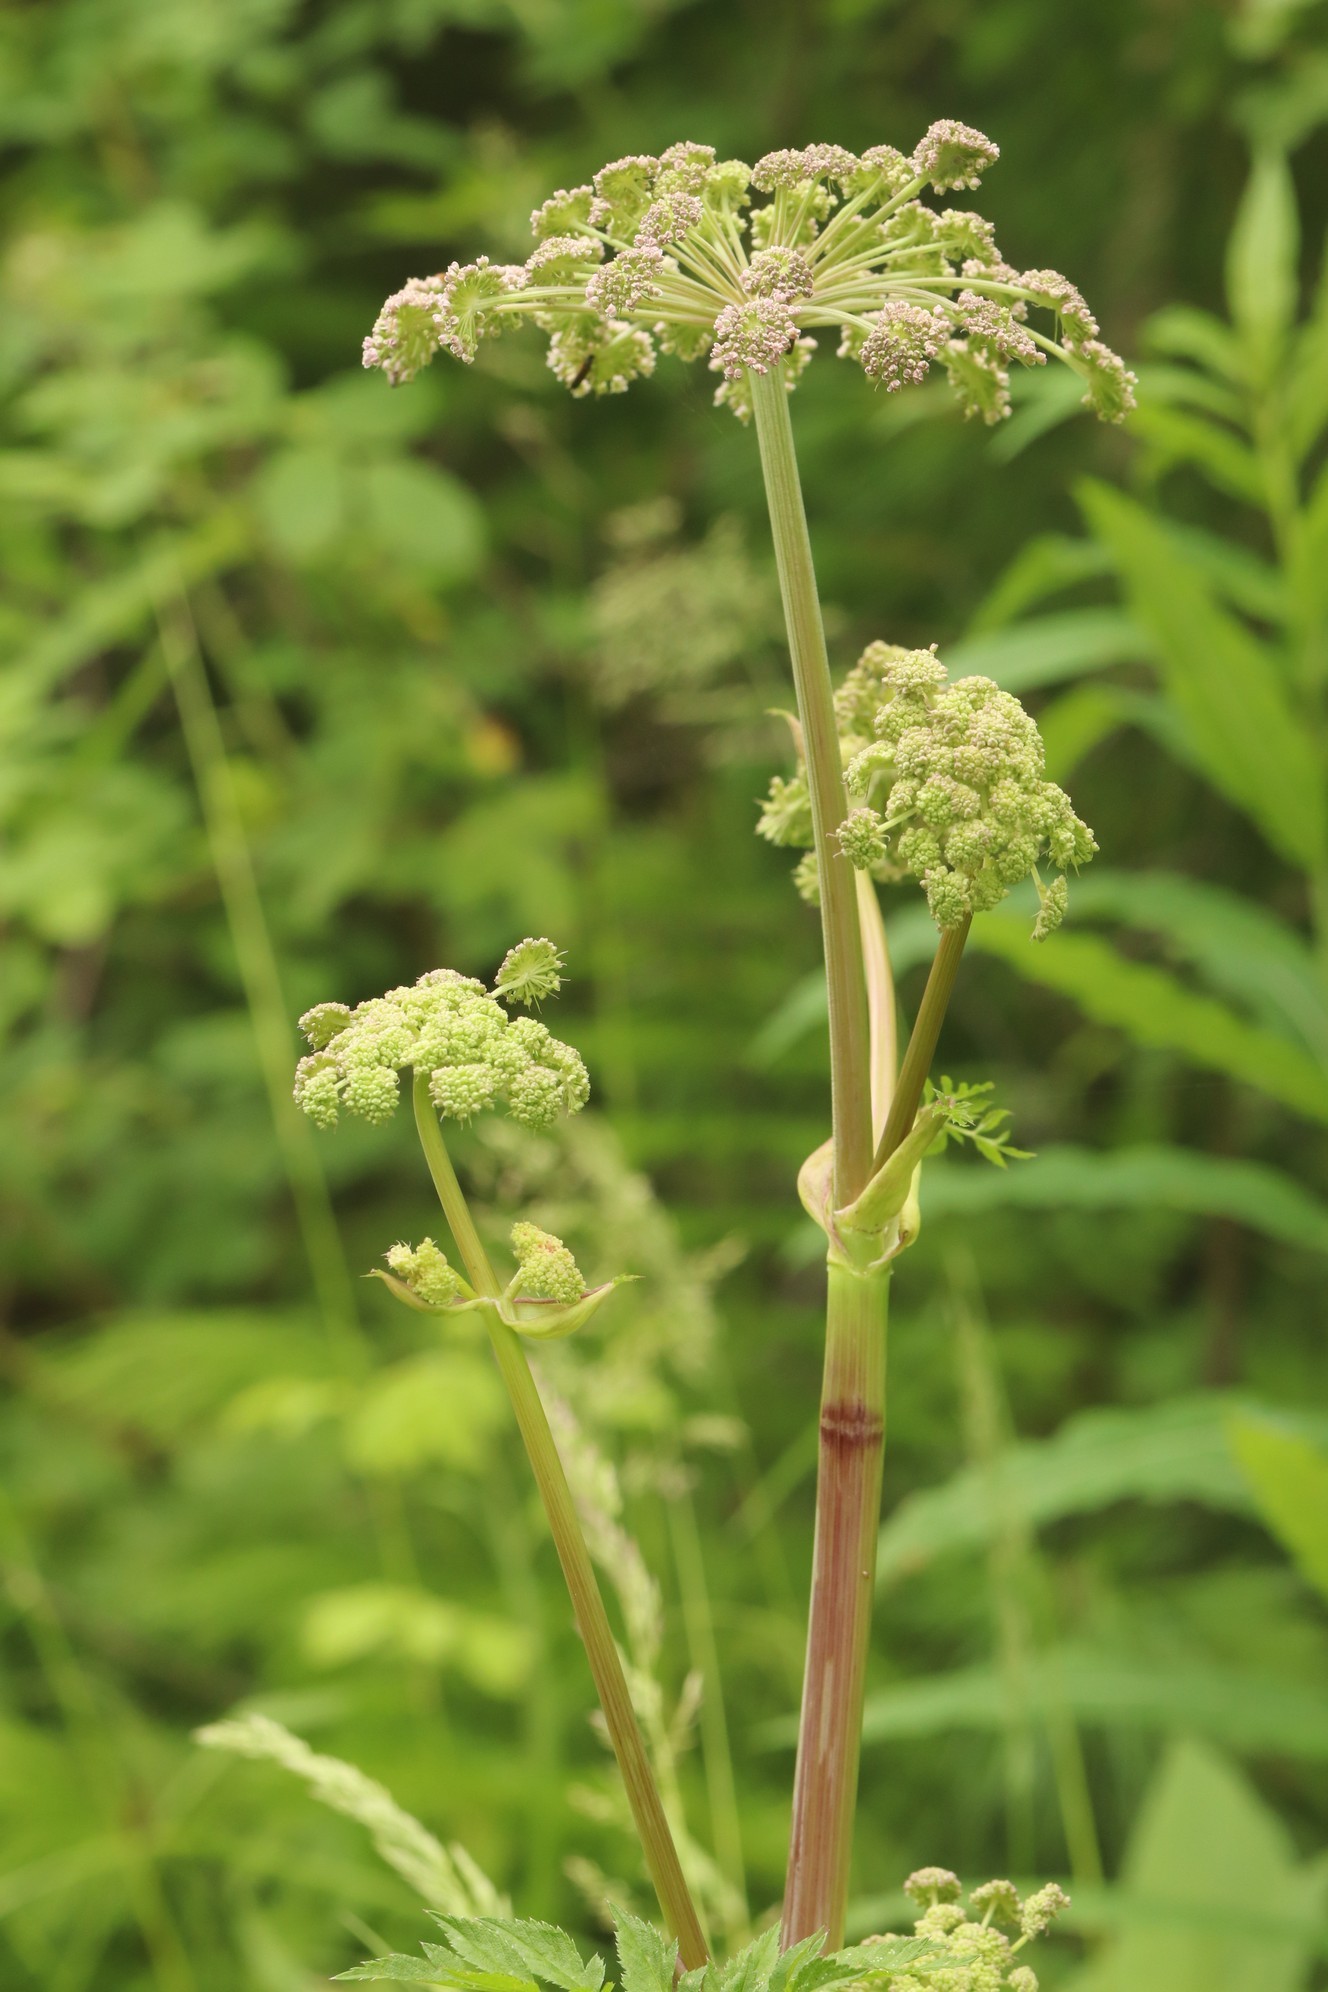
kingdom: Plantae
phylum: Tracheophyta
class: Magnoliopsida
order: Apiales
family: Apiaceae
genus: Angelica
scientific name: Angelica sylvestris
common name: Wild angelica
